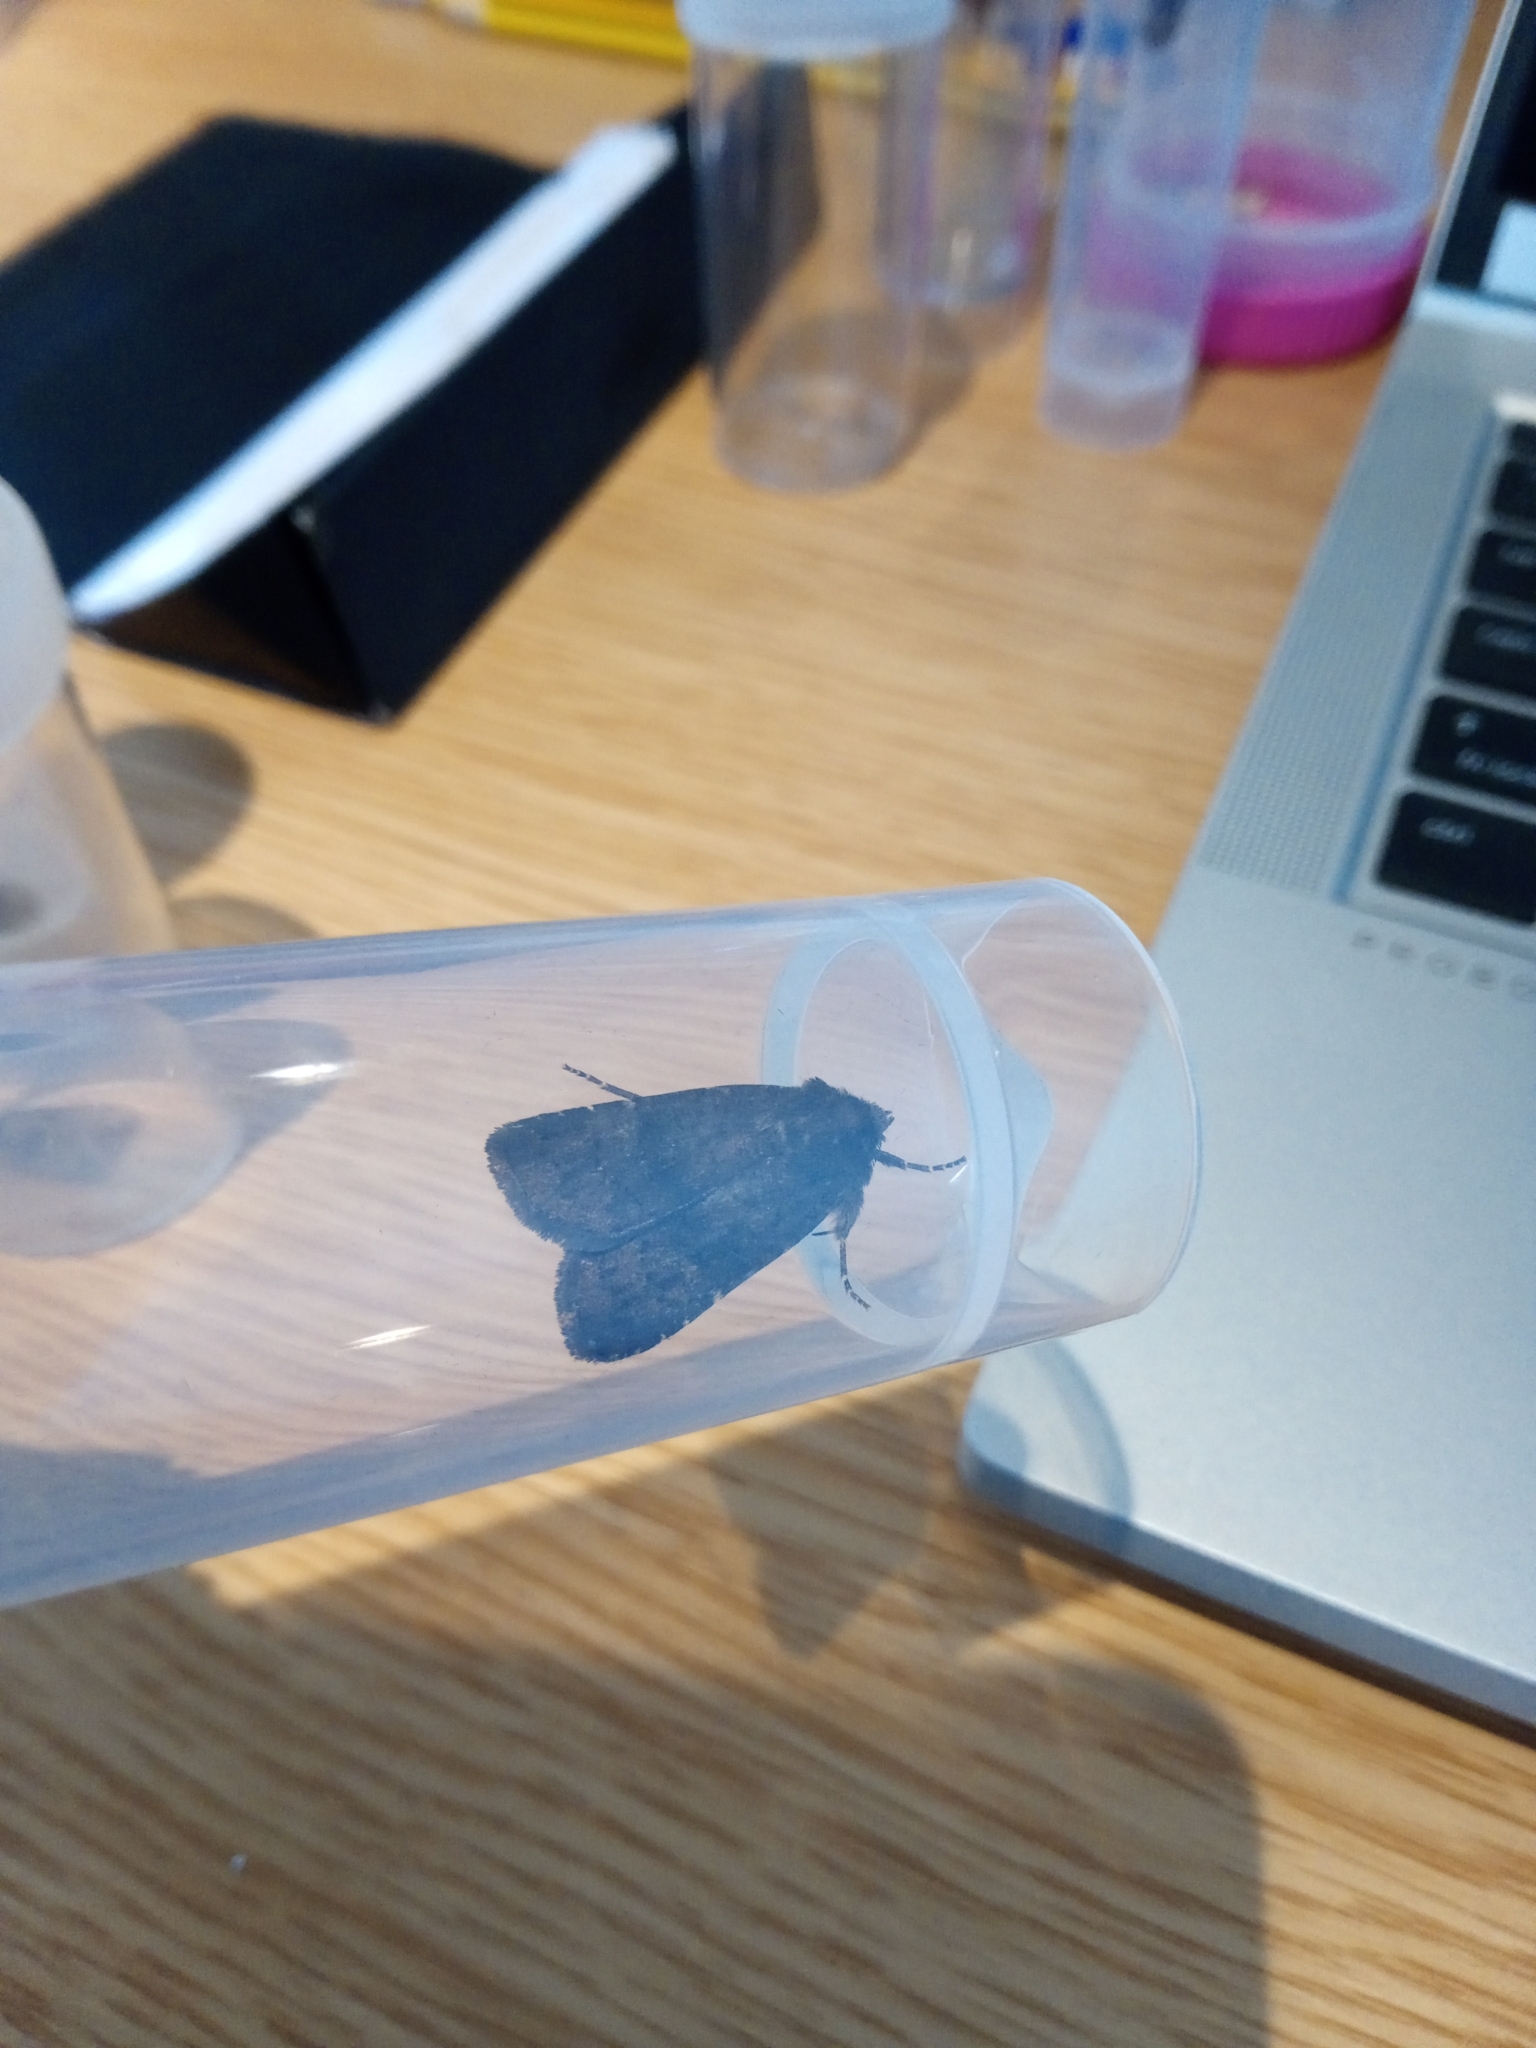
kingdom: Animalia
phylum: Arthropoda
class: Insecta
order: Lepidoptera
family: Noctuidae
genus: Charanyca
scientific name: Charanyca ferruginea
